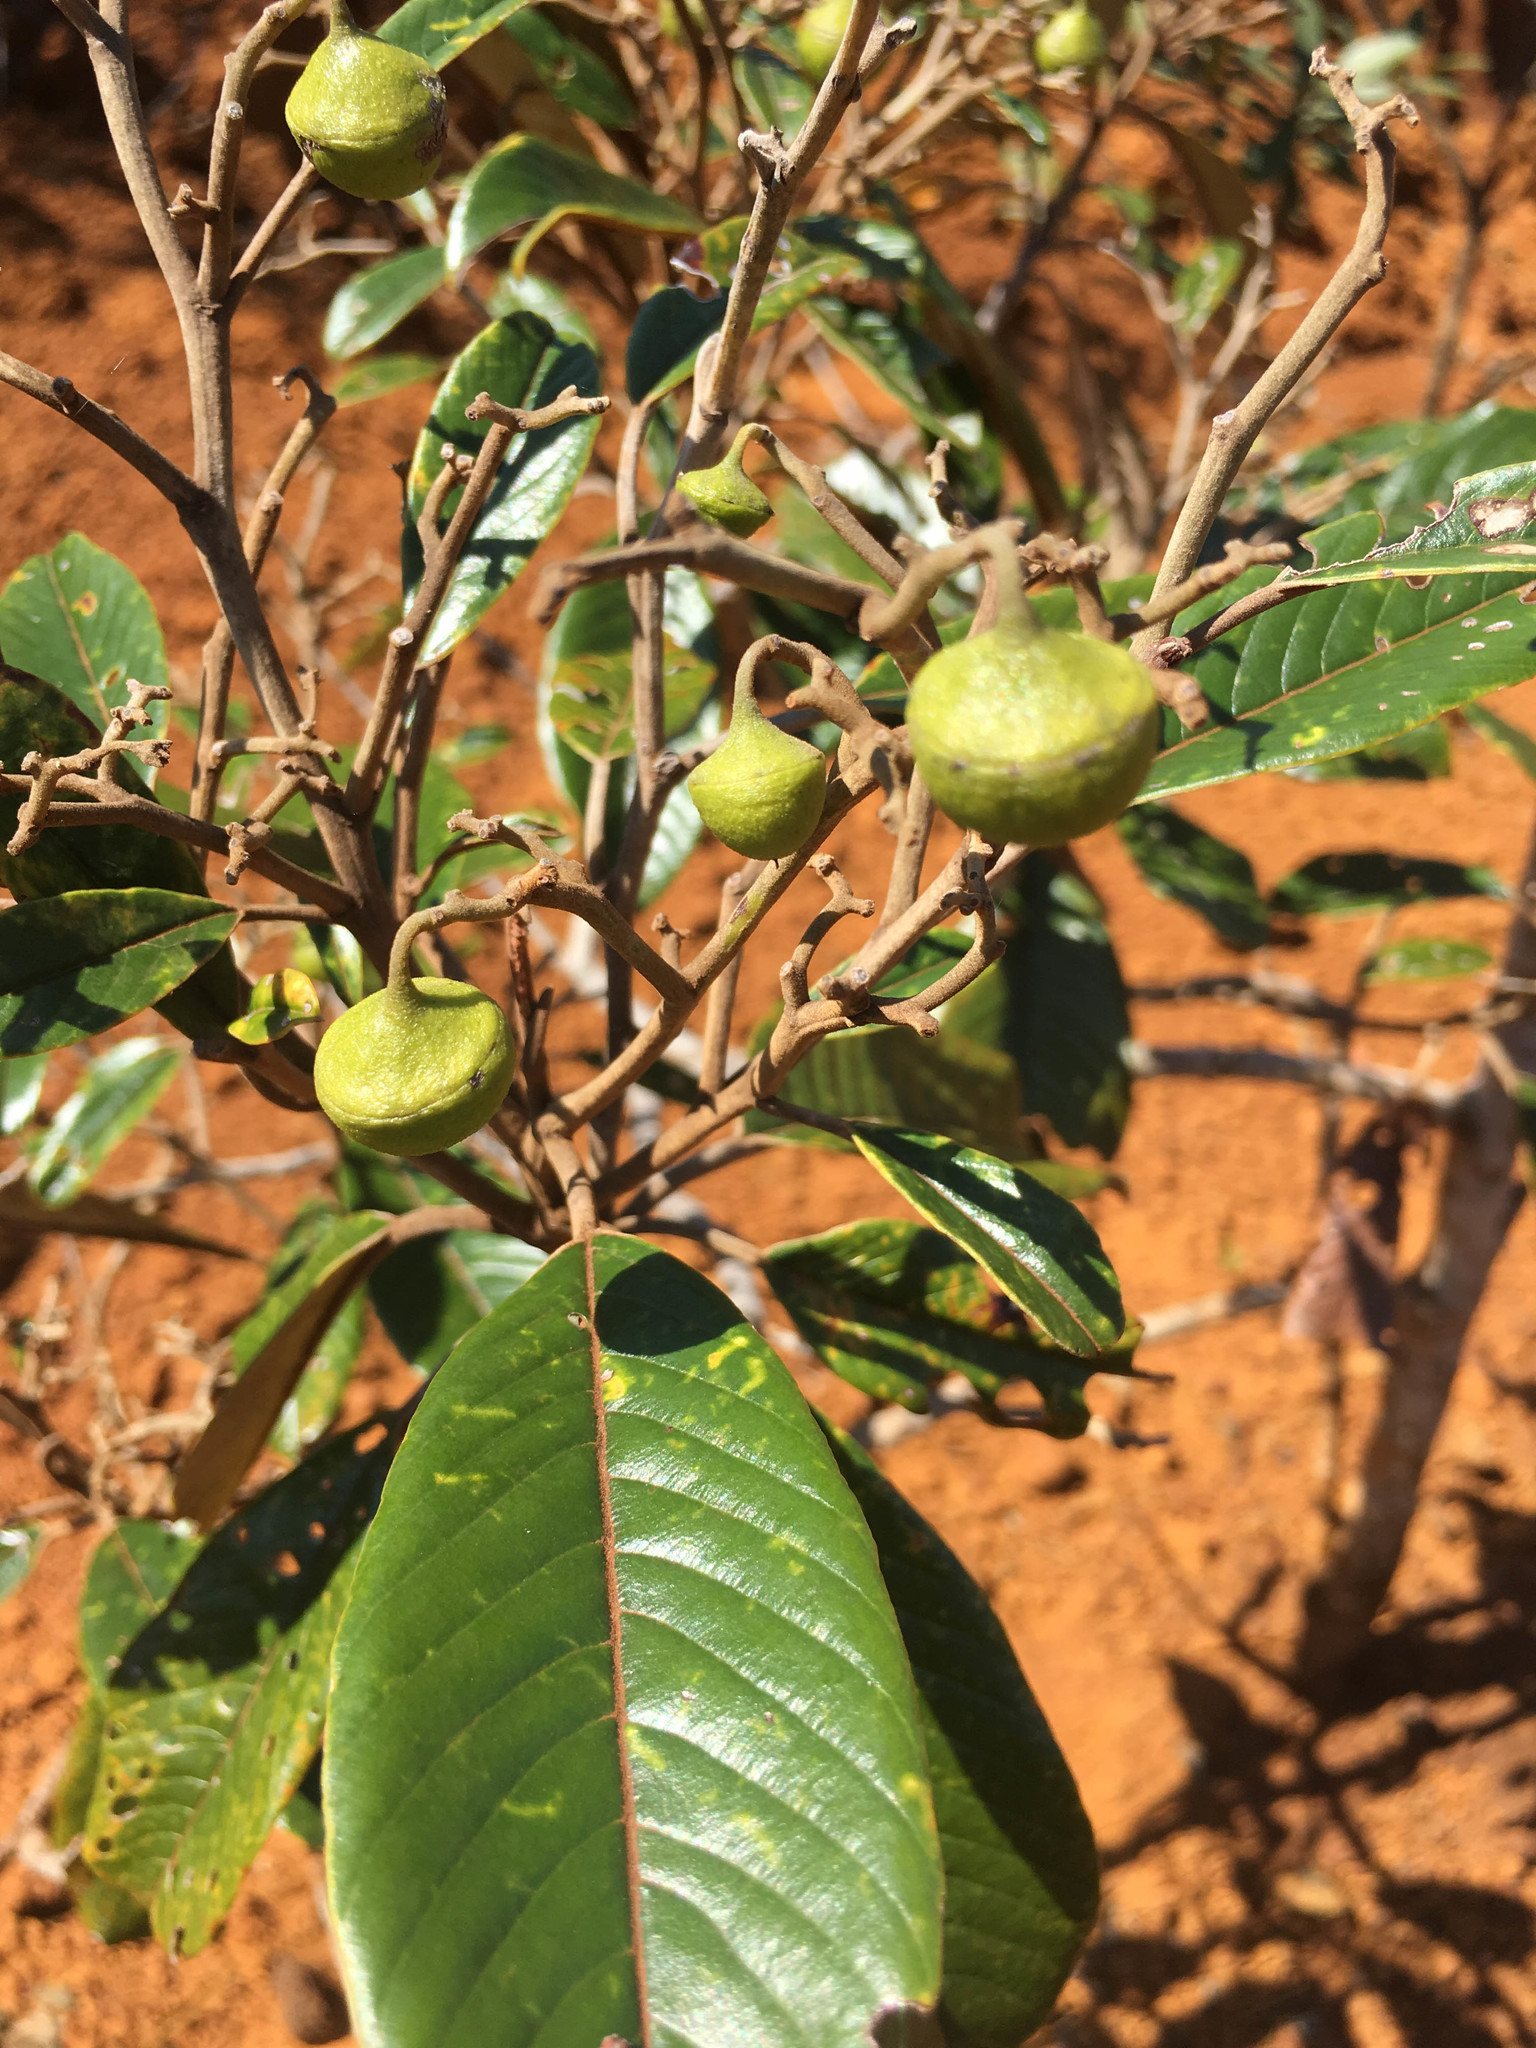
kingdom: Plantae
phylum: Tracheophyta
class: Magnoliopsida
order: Rosales
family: Rhamnaceae
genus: Alphitonia
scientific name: Alphitonia neocaledonica
